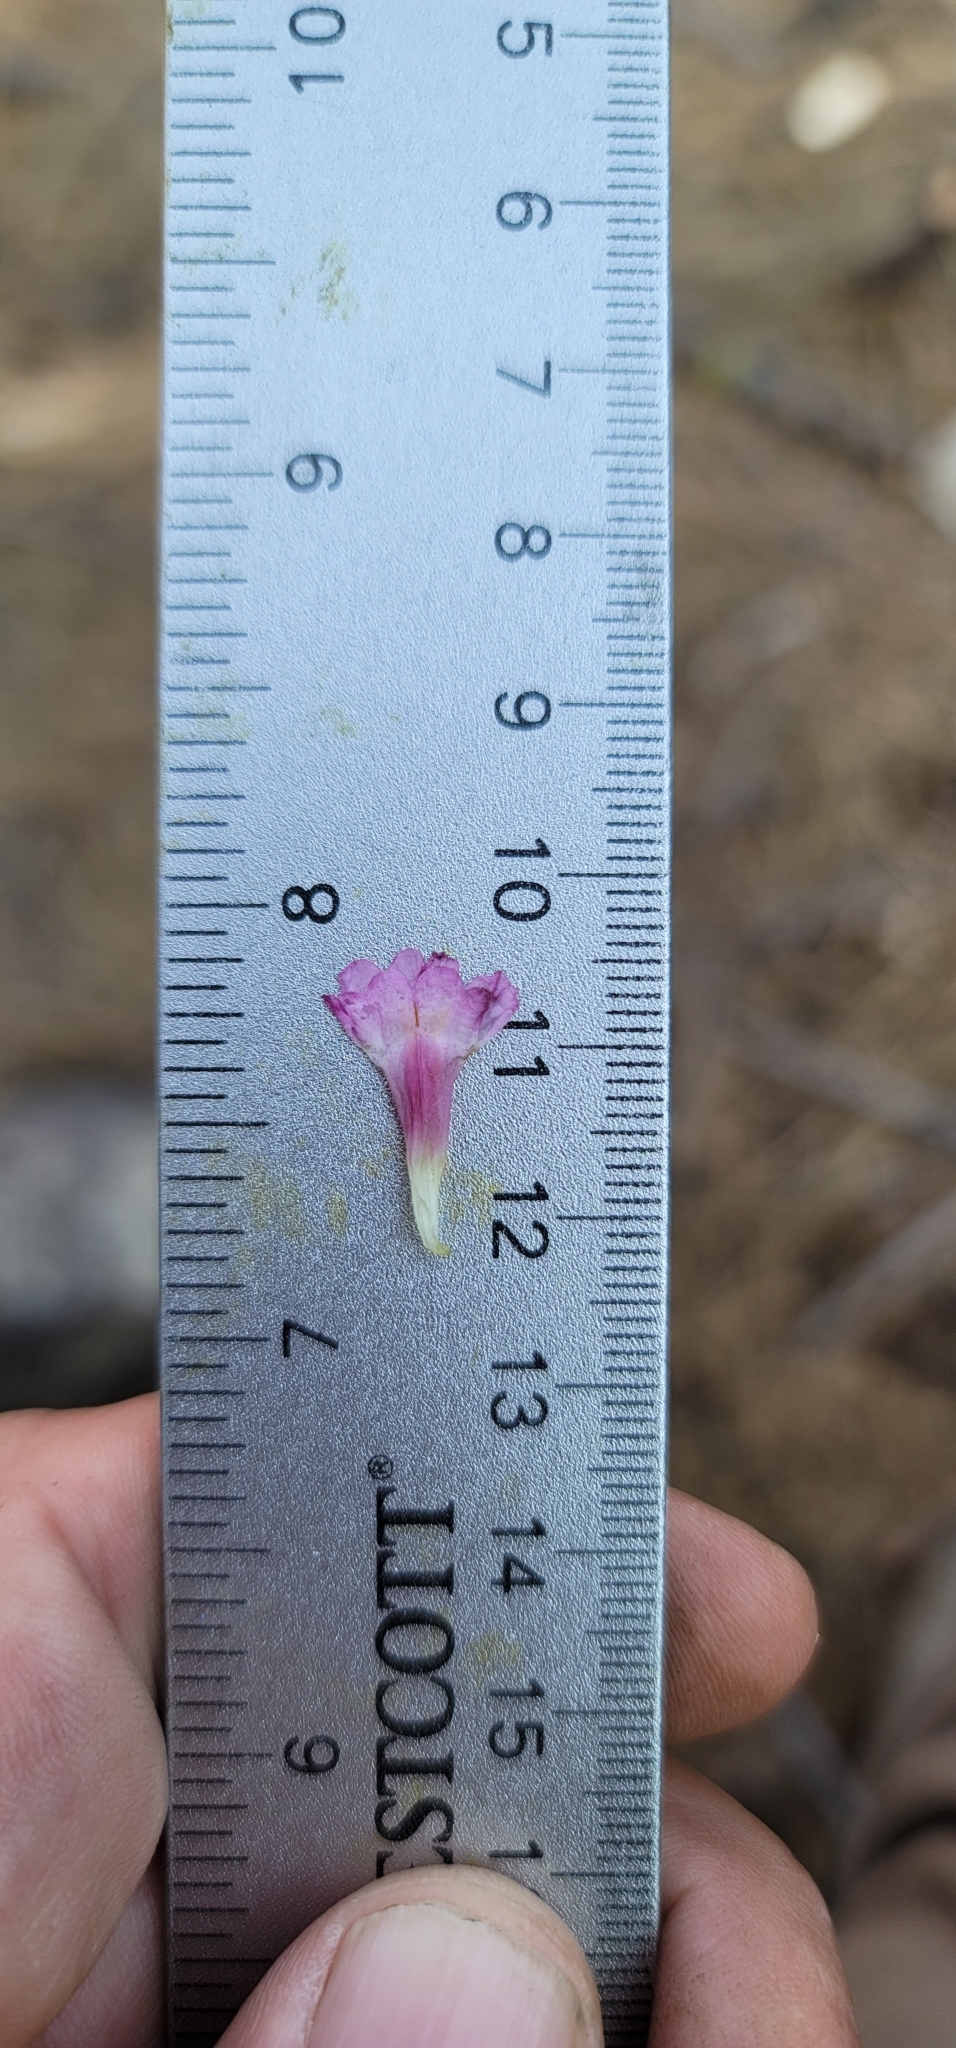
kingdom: Plantae
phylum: Tracheophyta
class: Magnoliopsida
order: Lamiales
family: Phrymaceae
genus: Erythranthe
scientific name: Erythranthe acutidens
